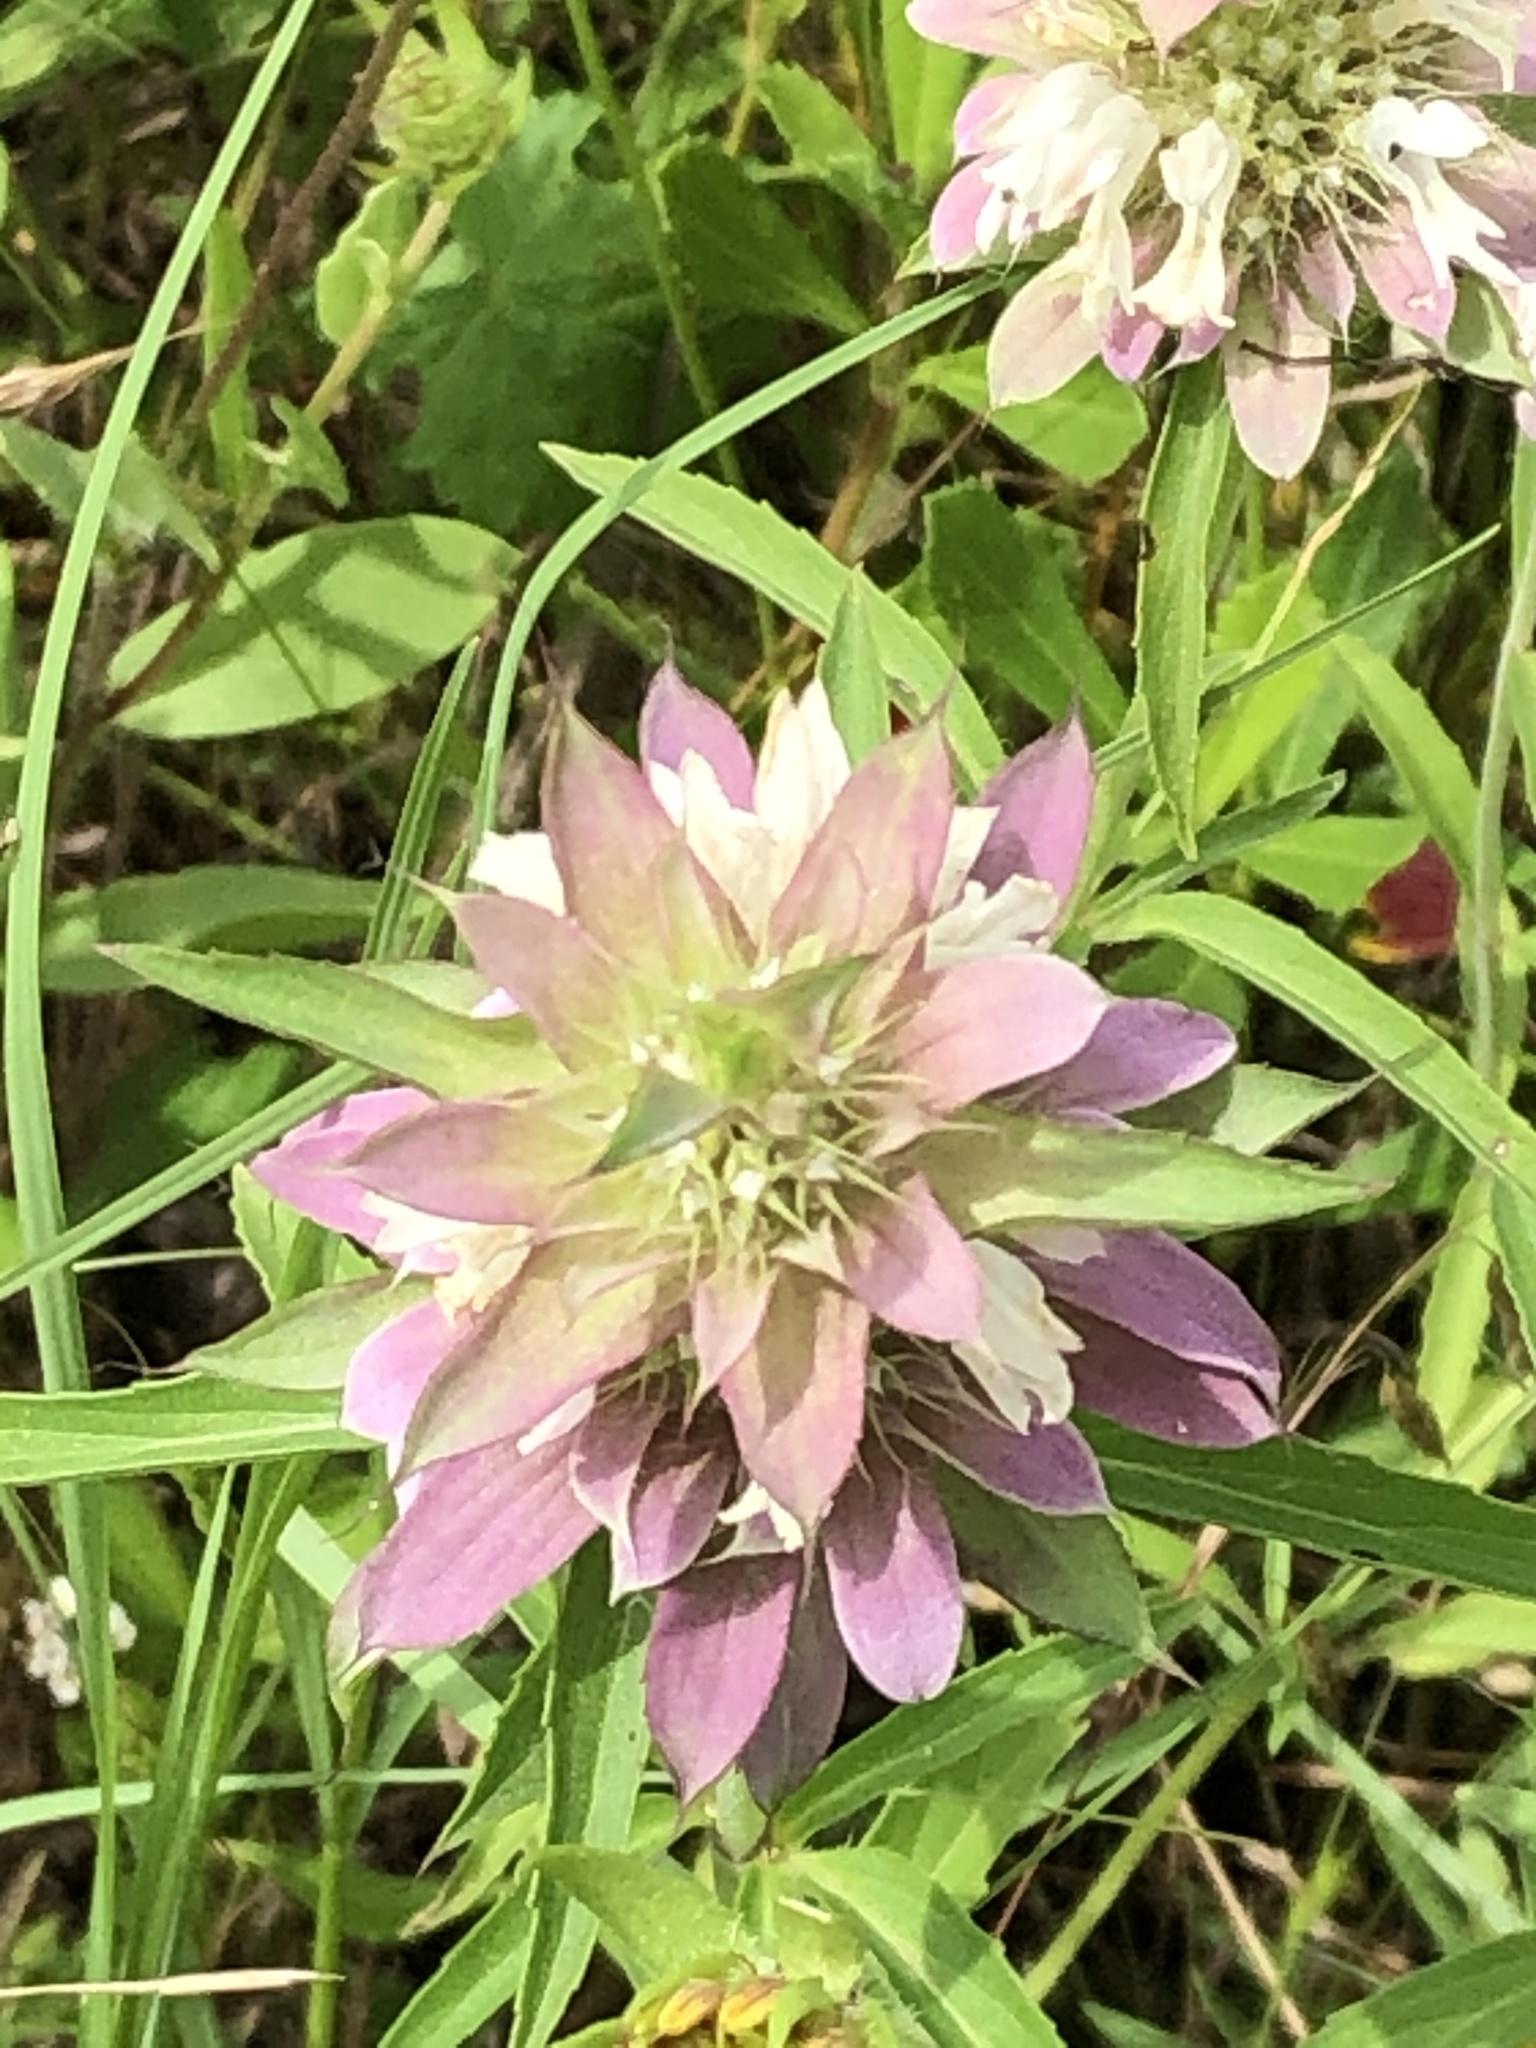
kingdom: Plantae
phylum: Tracheophyta
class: Magnoliopsida
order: Lamiales
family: Lamiaceae
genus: Monarda
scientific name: Monarda citriodora
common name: Lemon beebalm
